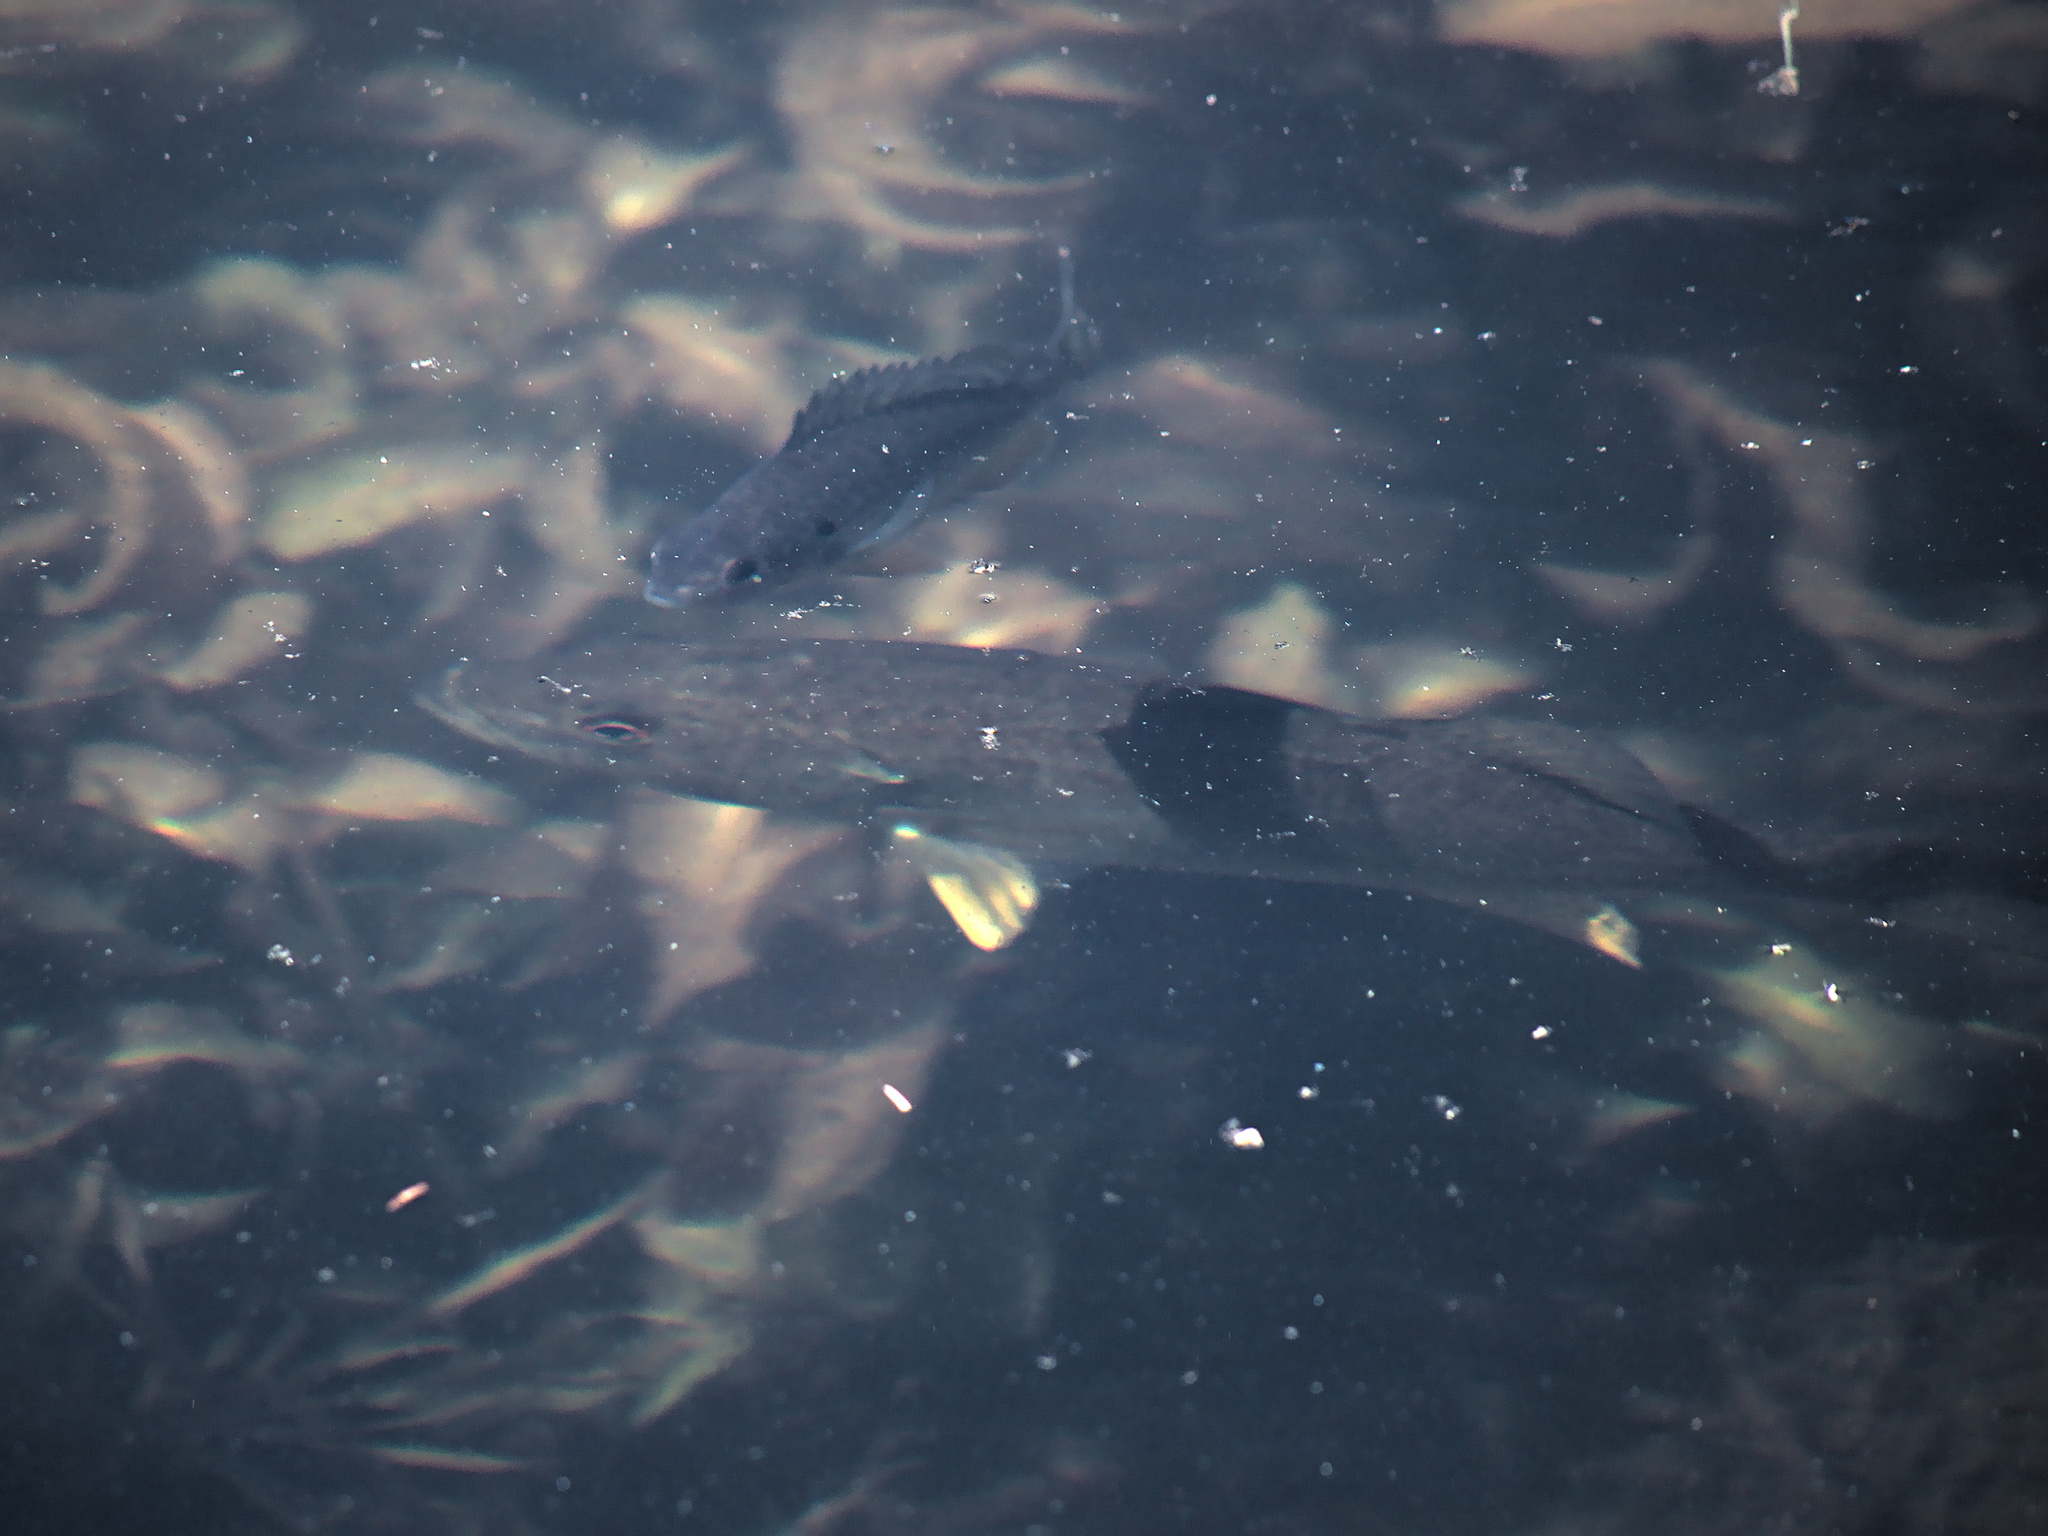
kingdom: Animalia
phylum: Chordata
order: Perciformes
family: Centrarchidae
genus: Micropterus
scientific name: Micropterus dolomieu
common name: Smallmouth bass
